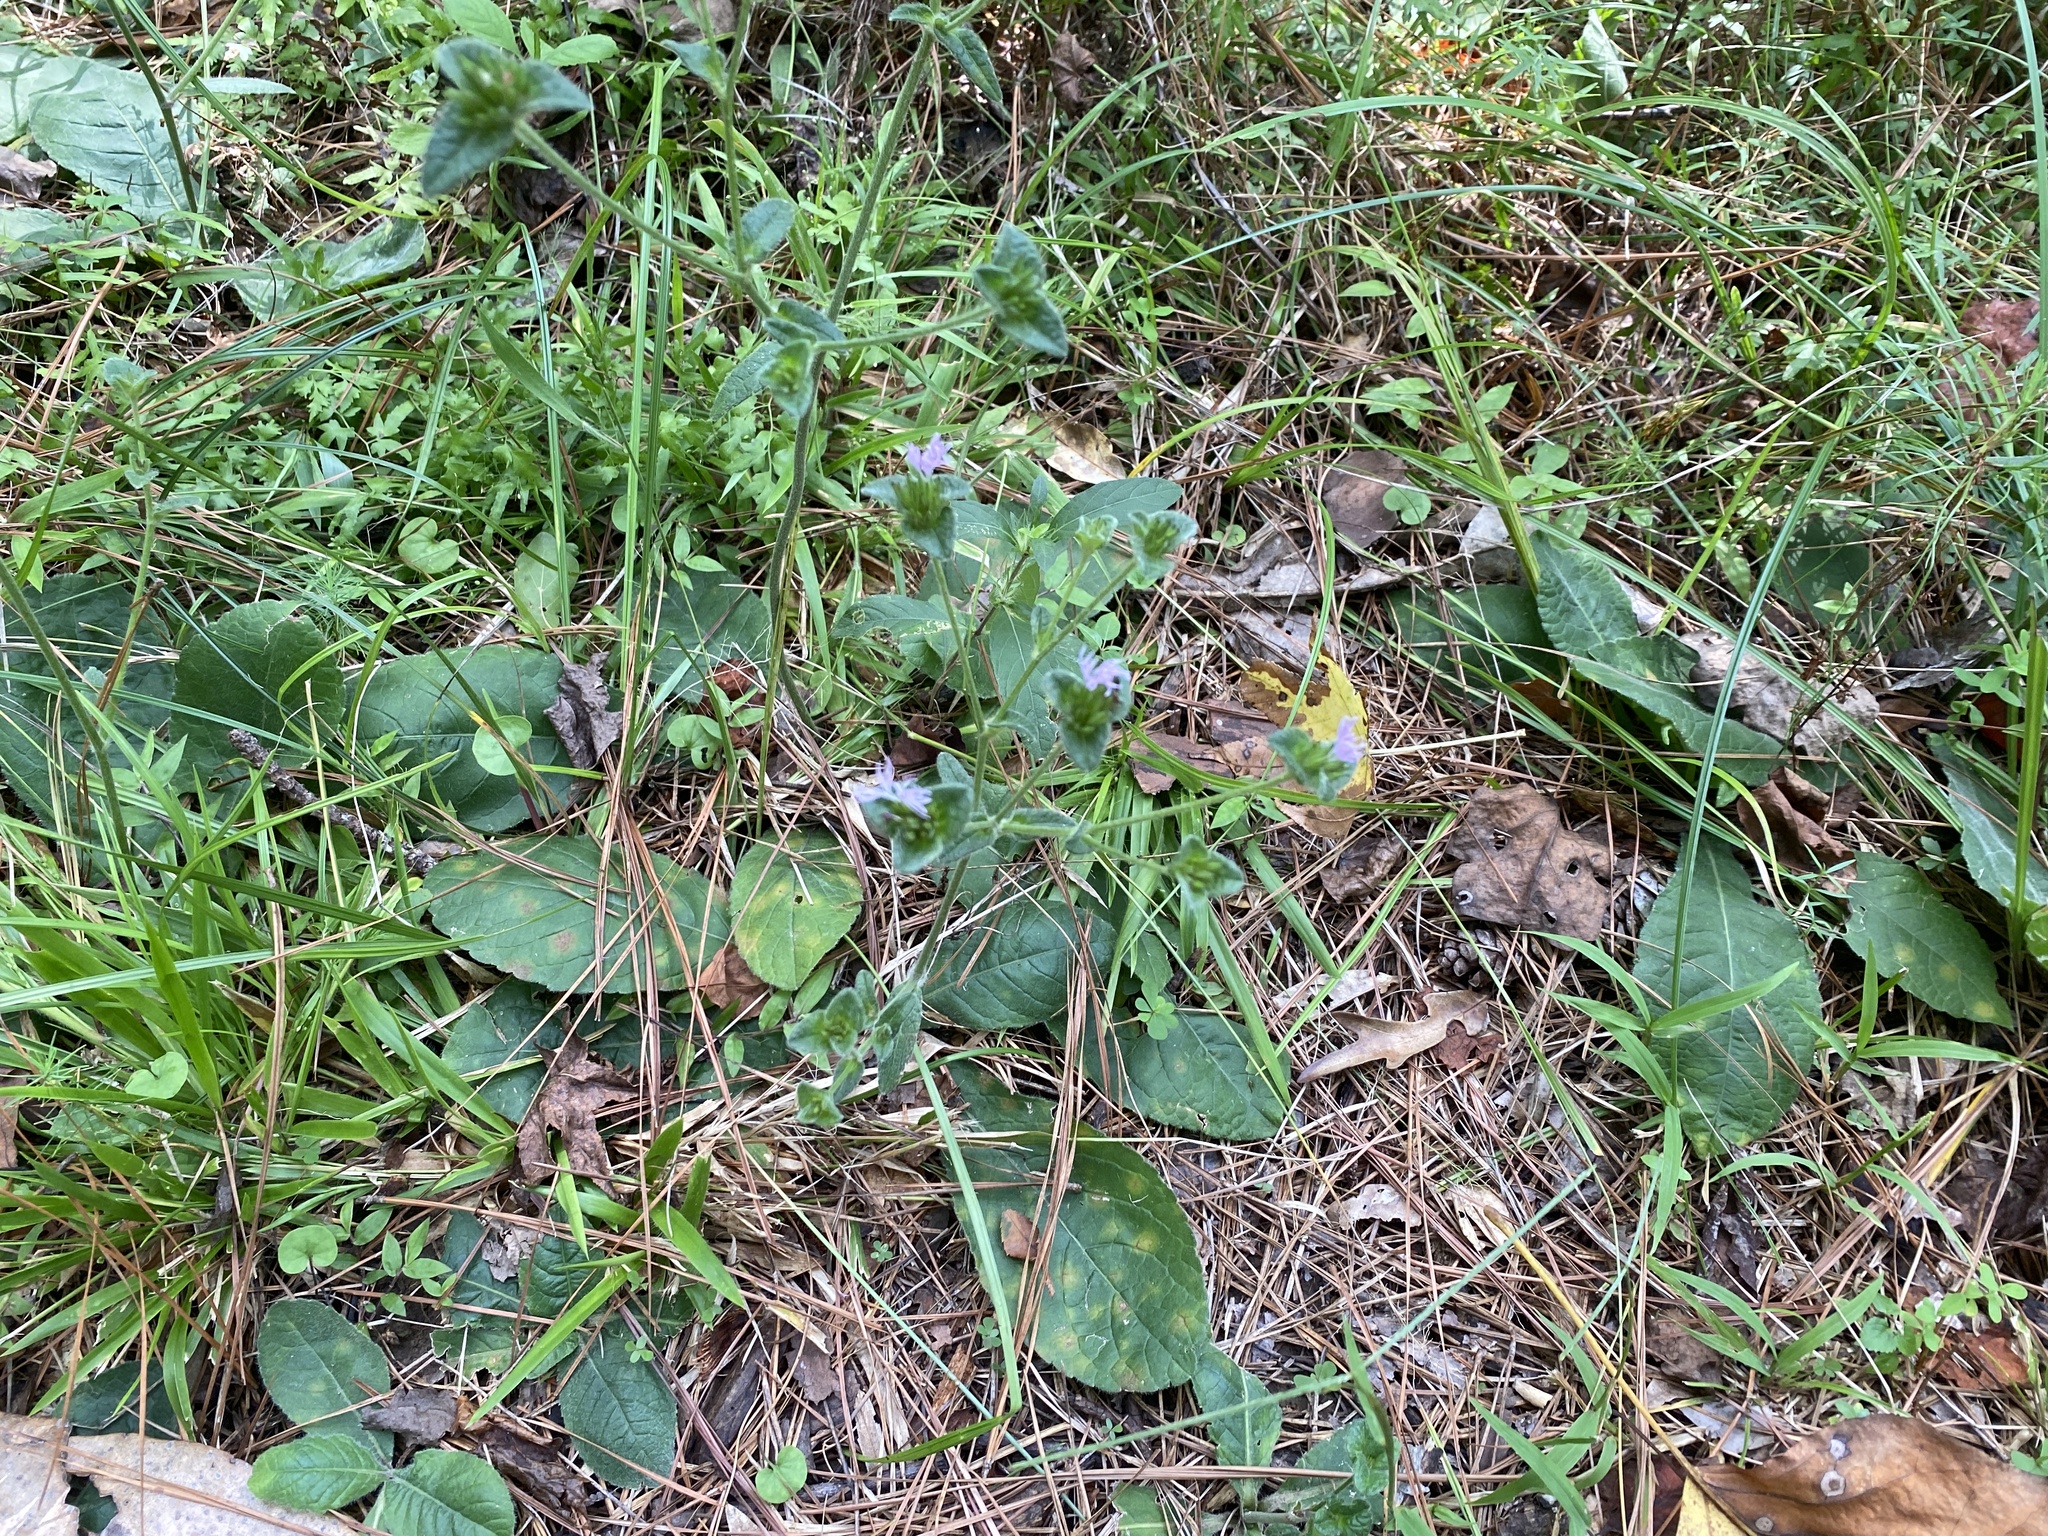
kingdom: Plantae
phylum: Tracheophyta
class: Magnoliopsida
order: Asterales
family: Asteraceae
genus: Elephantopus
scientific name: Elephantopus tomentosus
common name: Tobacco-weed
